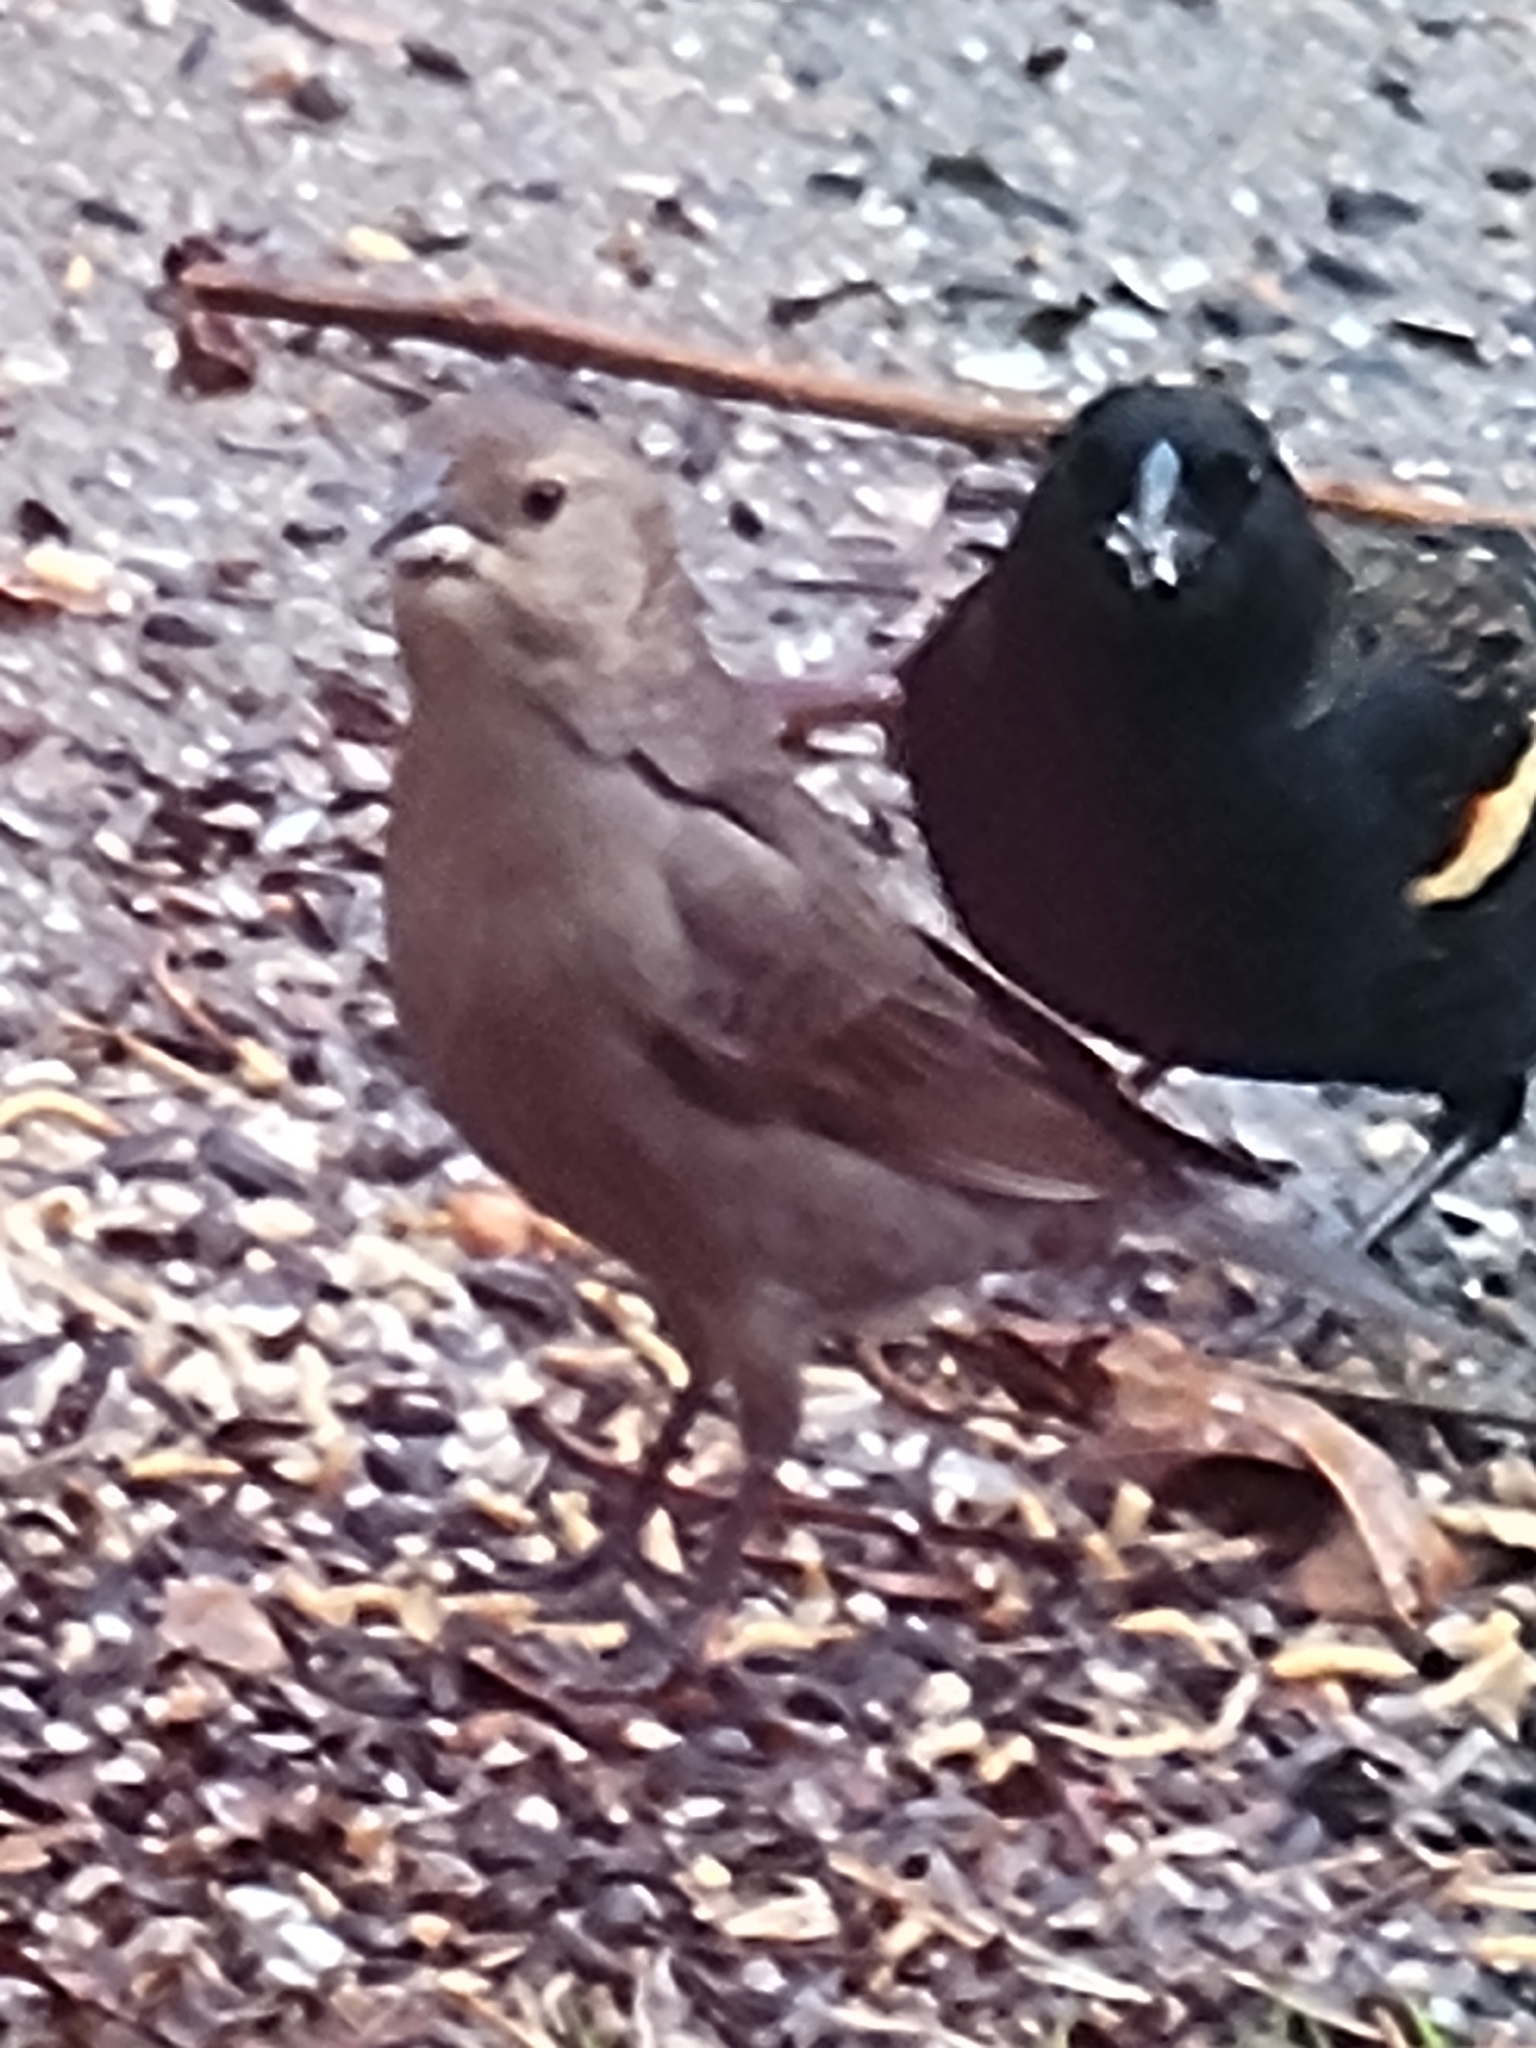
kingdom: Animalia
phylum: Chordata
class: Aves
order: Passeriformes
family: Icteridae
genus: Molothrus
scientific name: Molothrus ater
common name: Brown-headed cowbird
